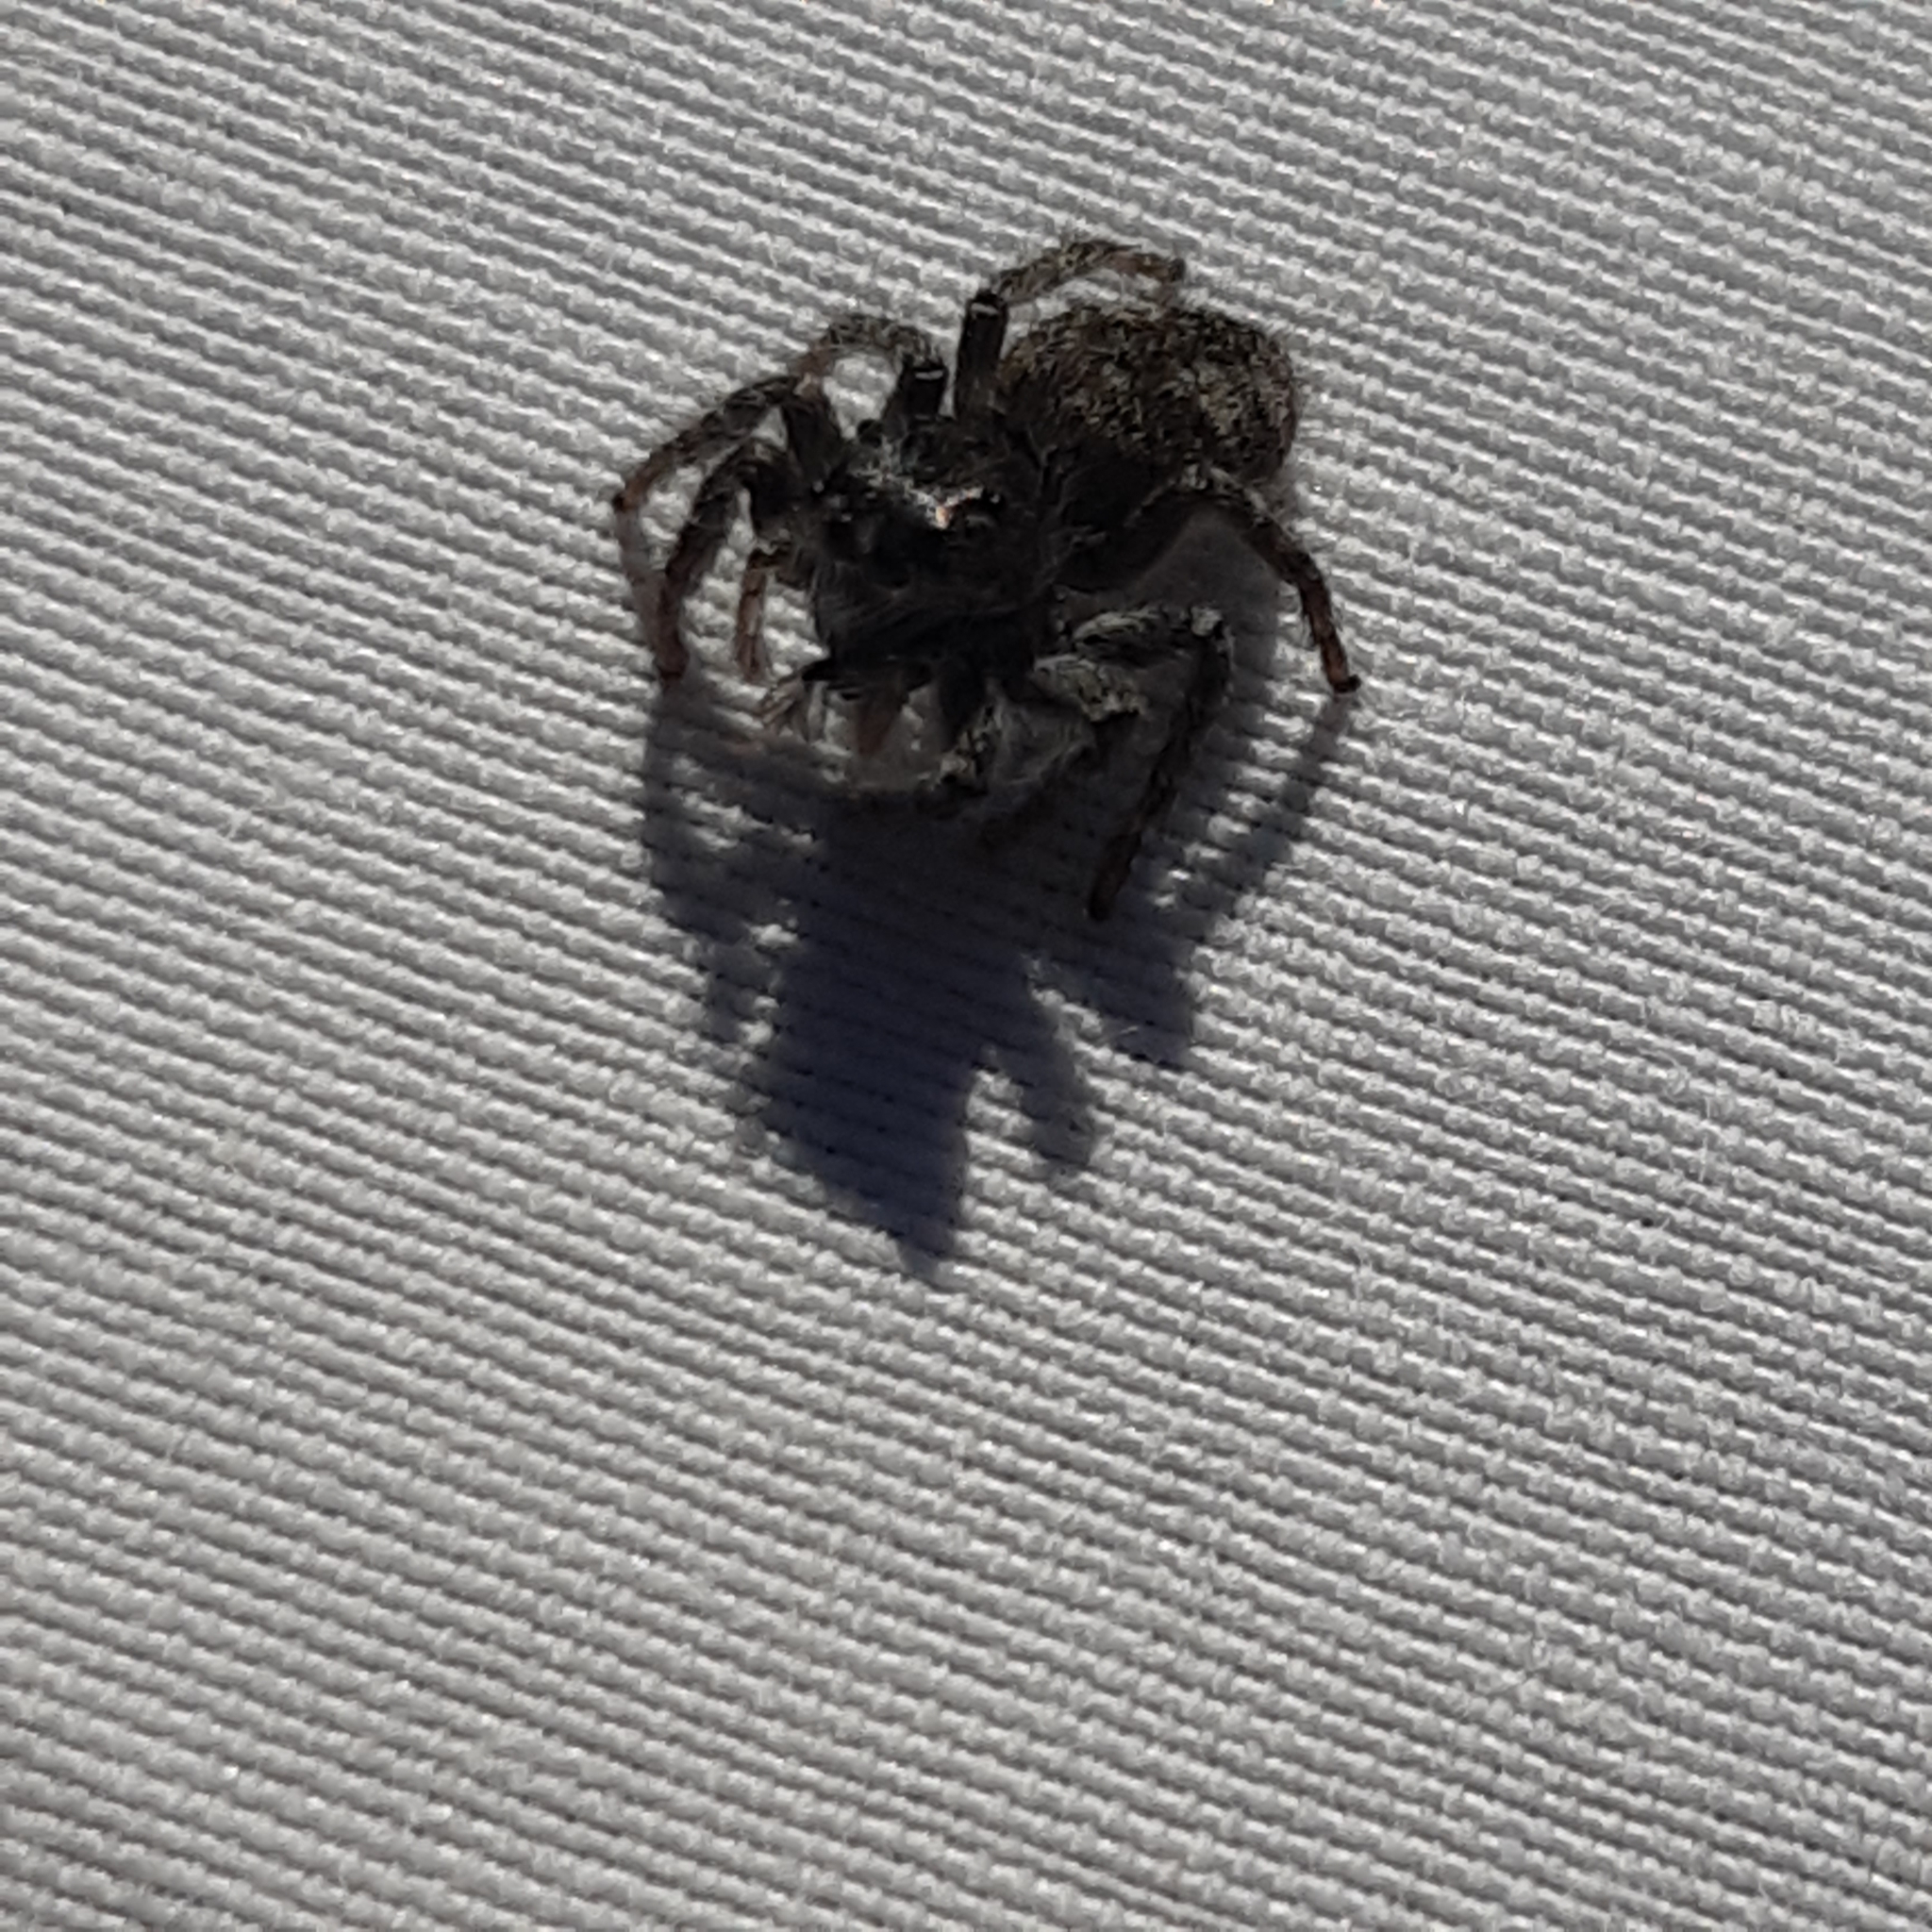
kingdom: Animalia
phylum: Arthropoda
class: Arachnida
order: Araneae
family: Salticidae
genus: Philaeus
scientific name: Philaeus chrysops
